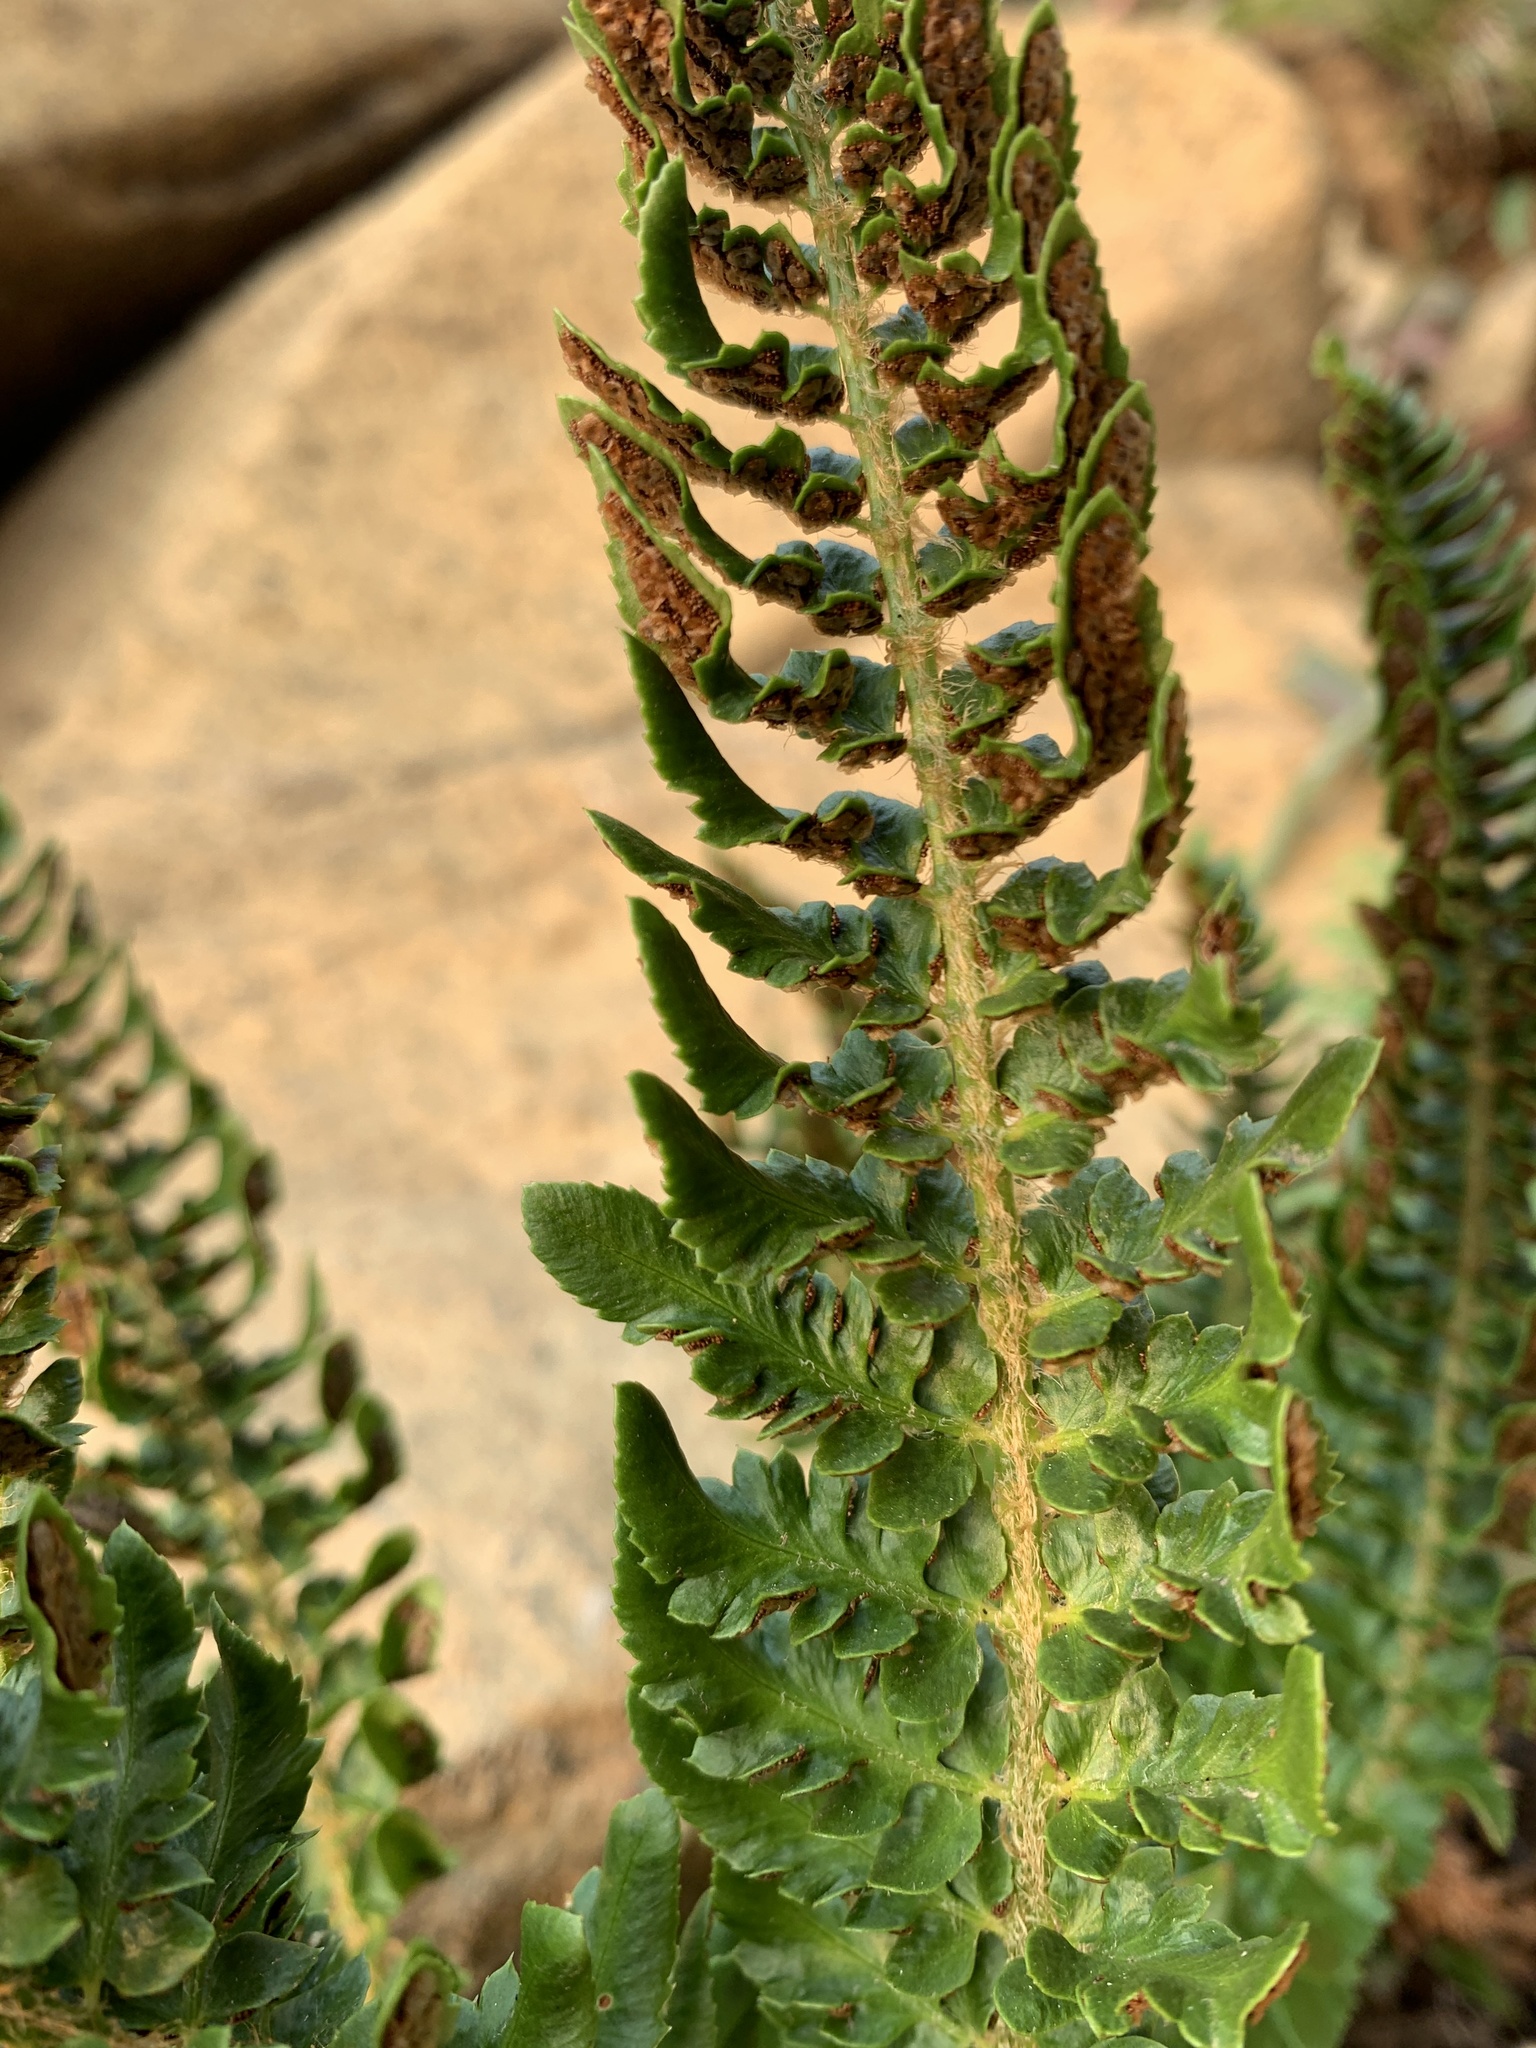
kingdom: Plantae
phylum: Tracheophyta
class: Polypodiopsida
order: Polypodiales
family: Dryopteridaceae
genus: Polystichum
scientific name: Polystichum scopulinum
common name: Eaton's shield fern
